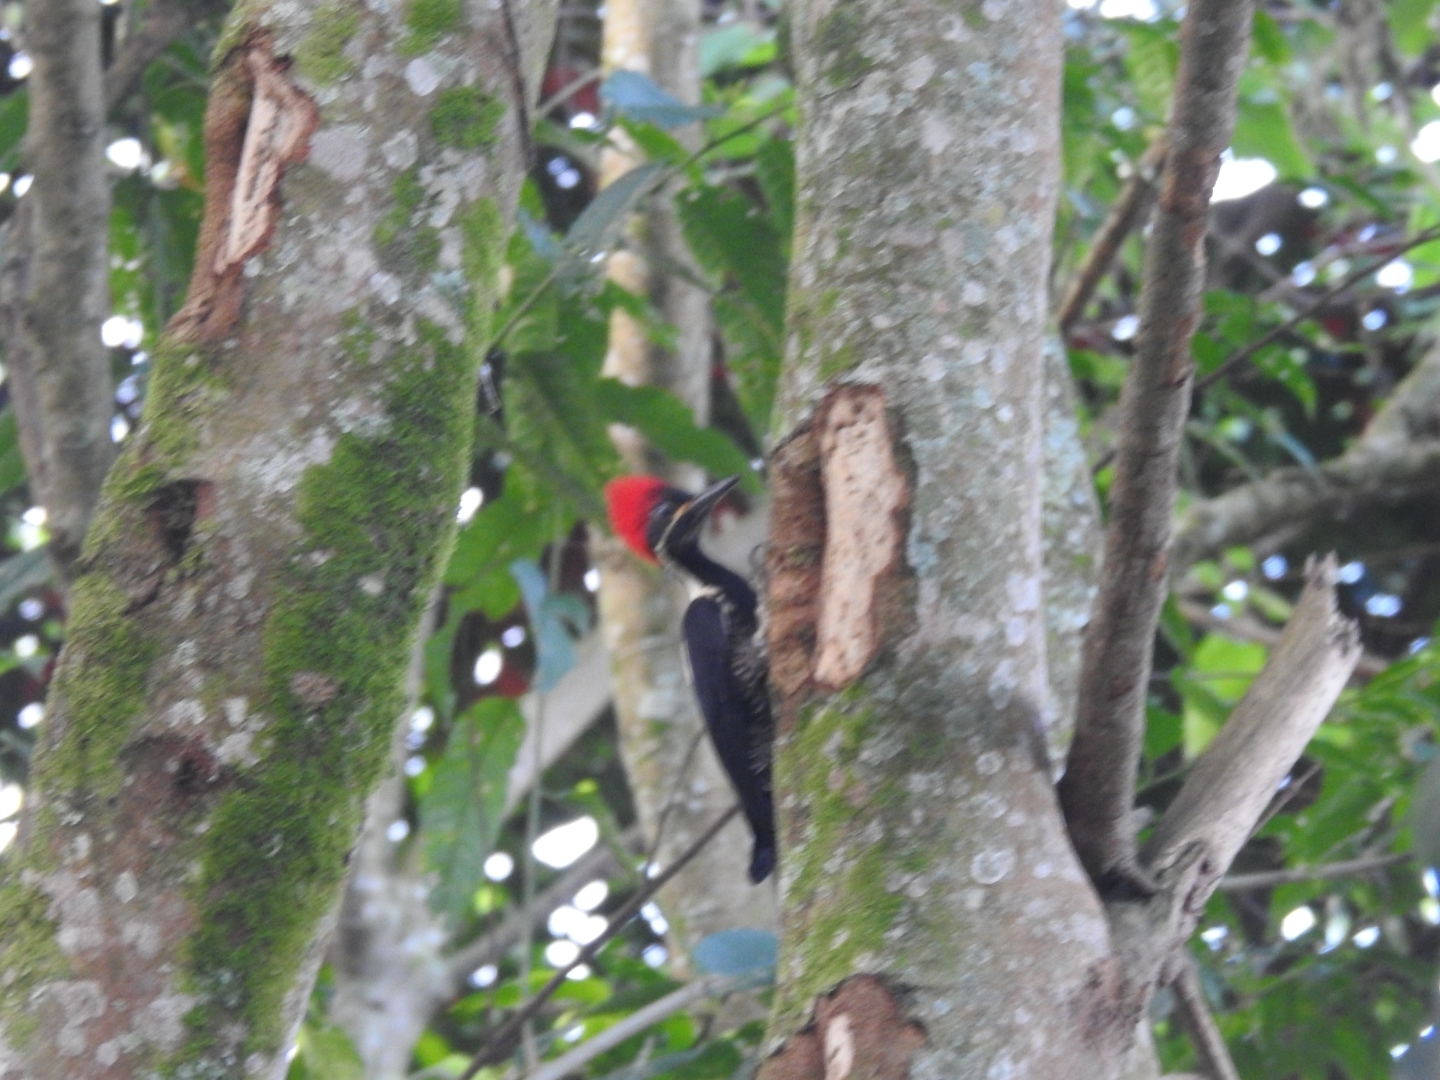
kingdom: Animalia
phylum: Chordata
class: Aves
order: Piciformes
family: Picidae
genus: Dryocopus
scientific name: Dryocopus lineatus
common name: Lineated woodpecker
